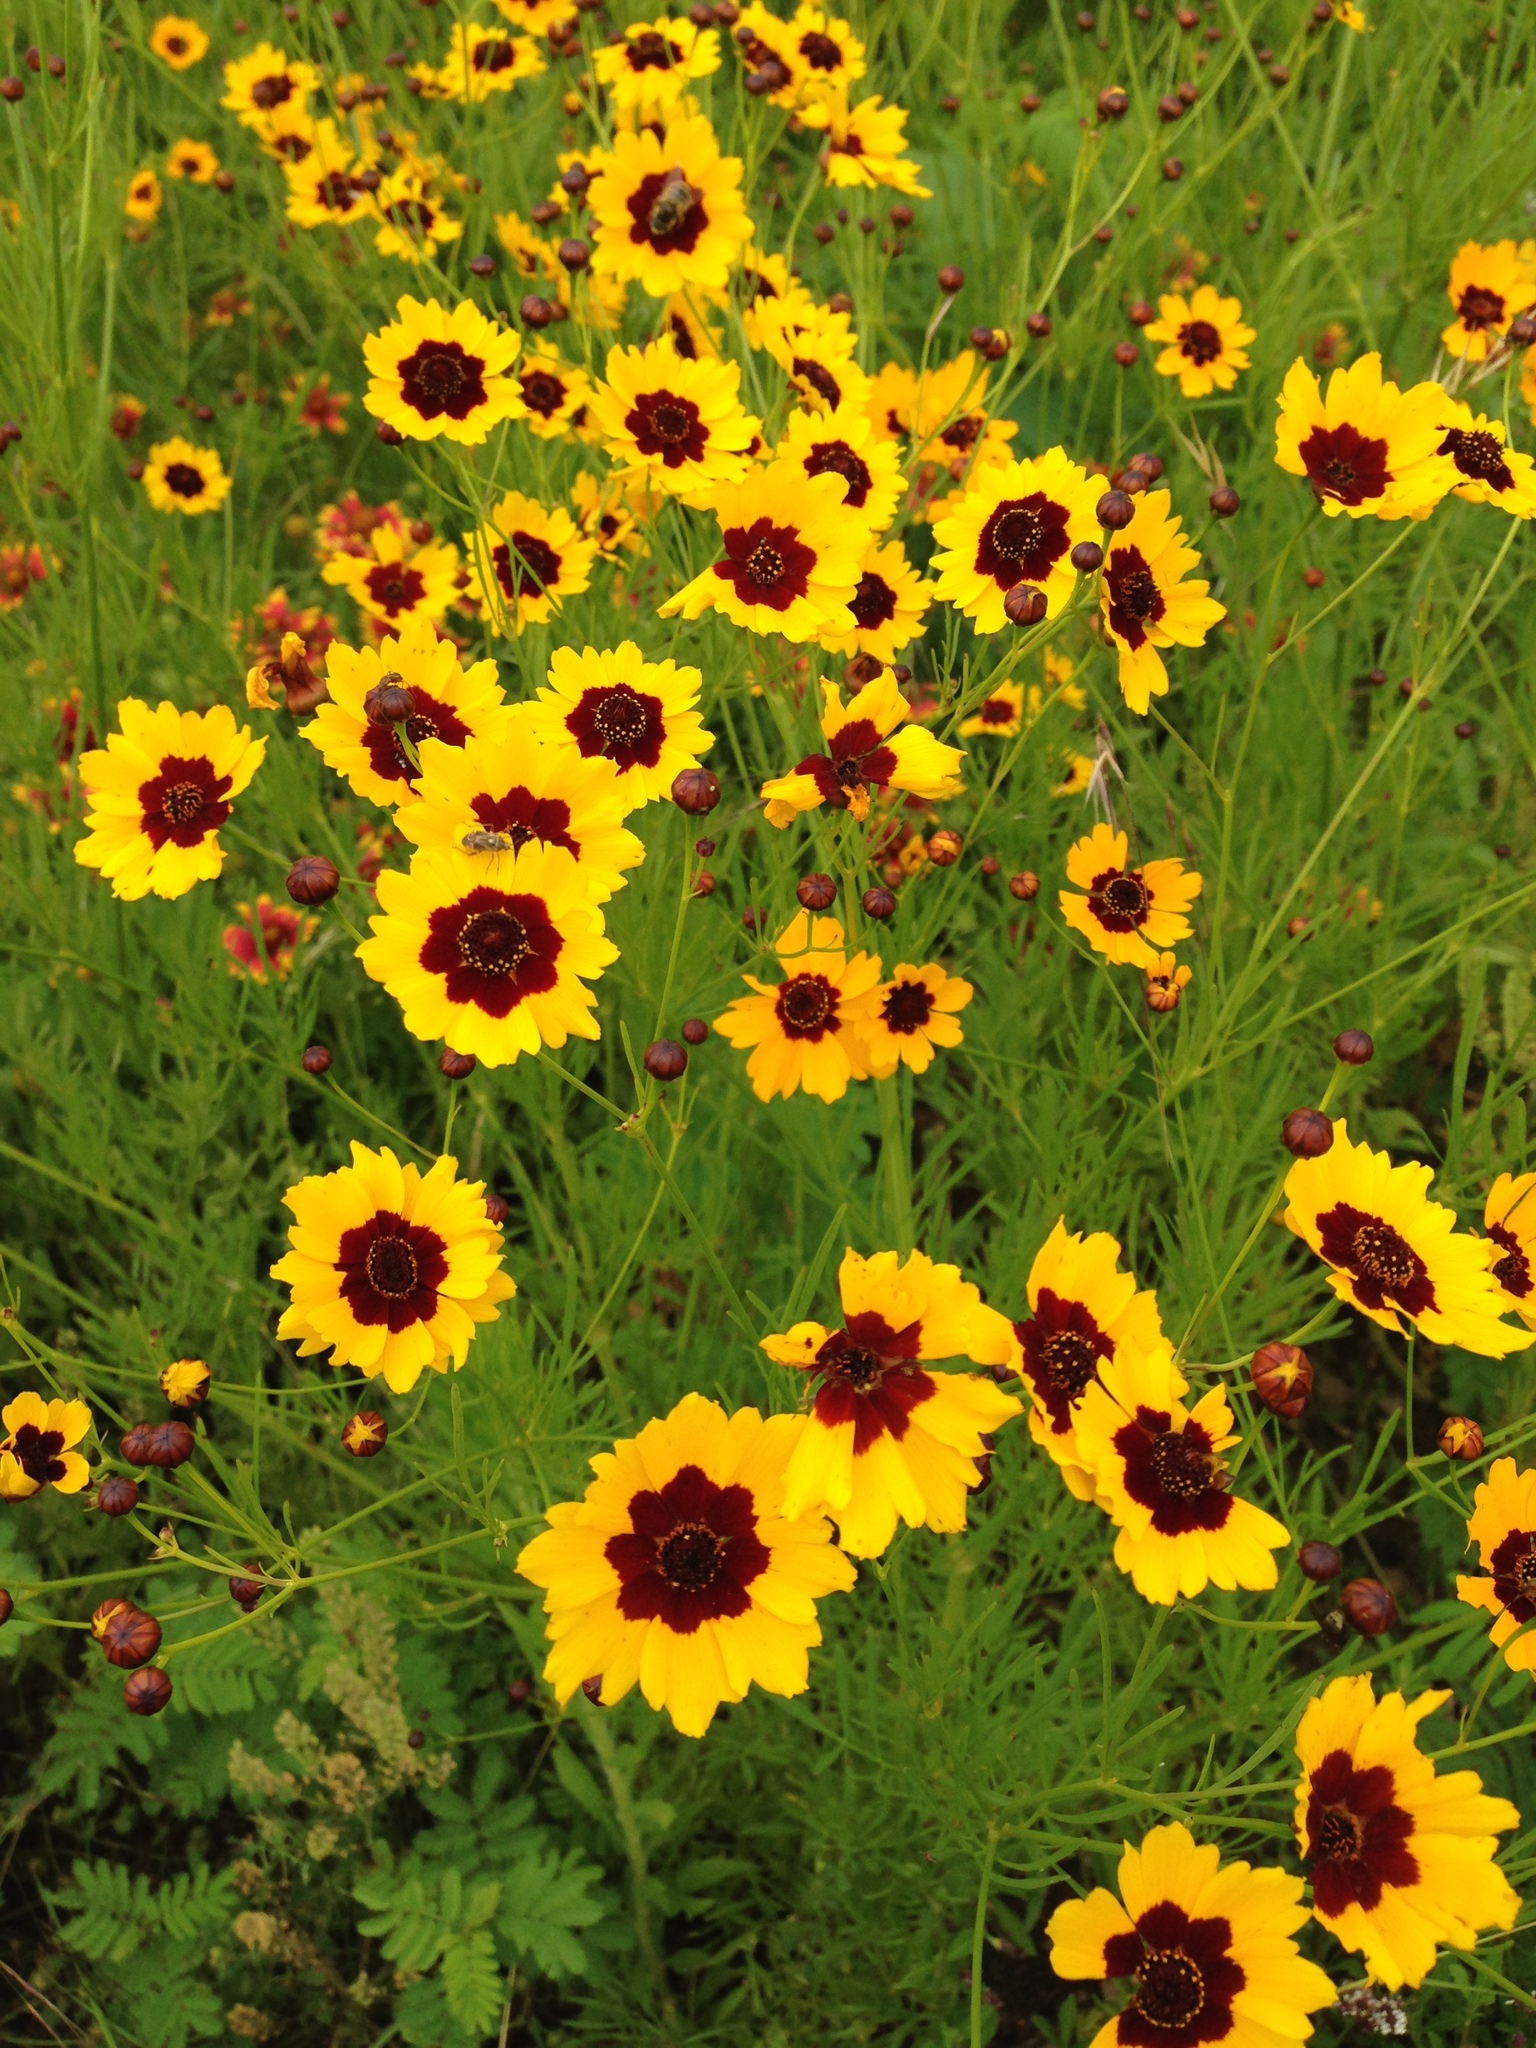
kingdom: Plantae
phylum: Tracheophyta
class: Magnoliopsida
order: Asterales
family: Asteraceae
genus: Coreopsis
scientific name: Coreopsis tinctoria
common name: Garden tickseed
